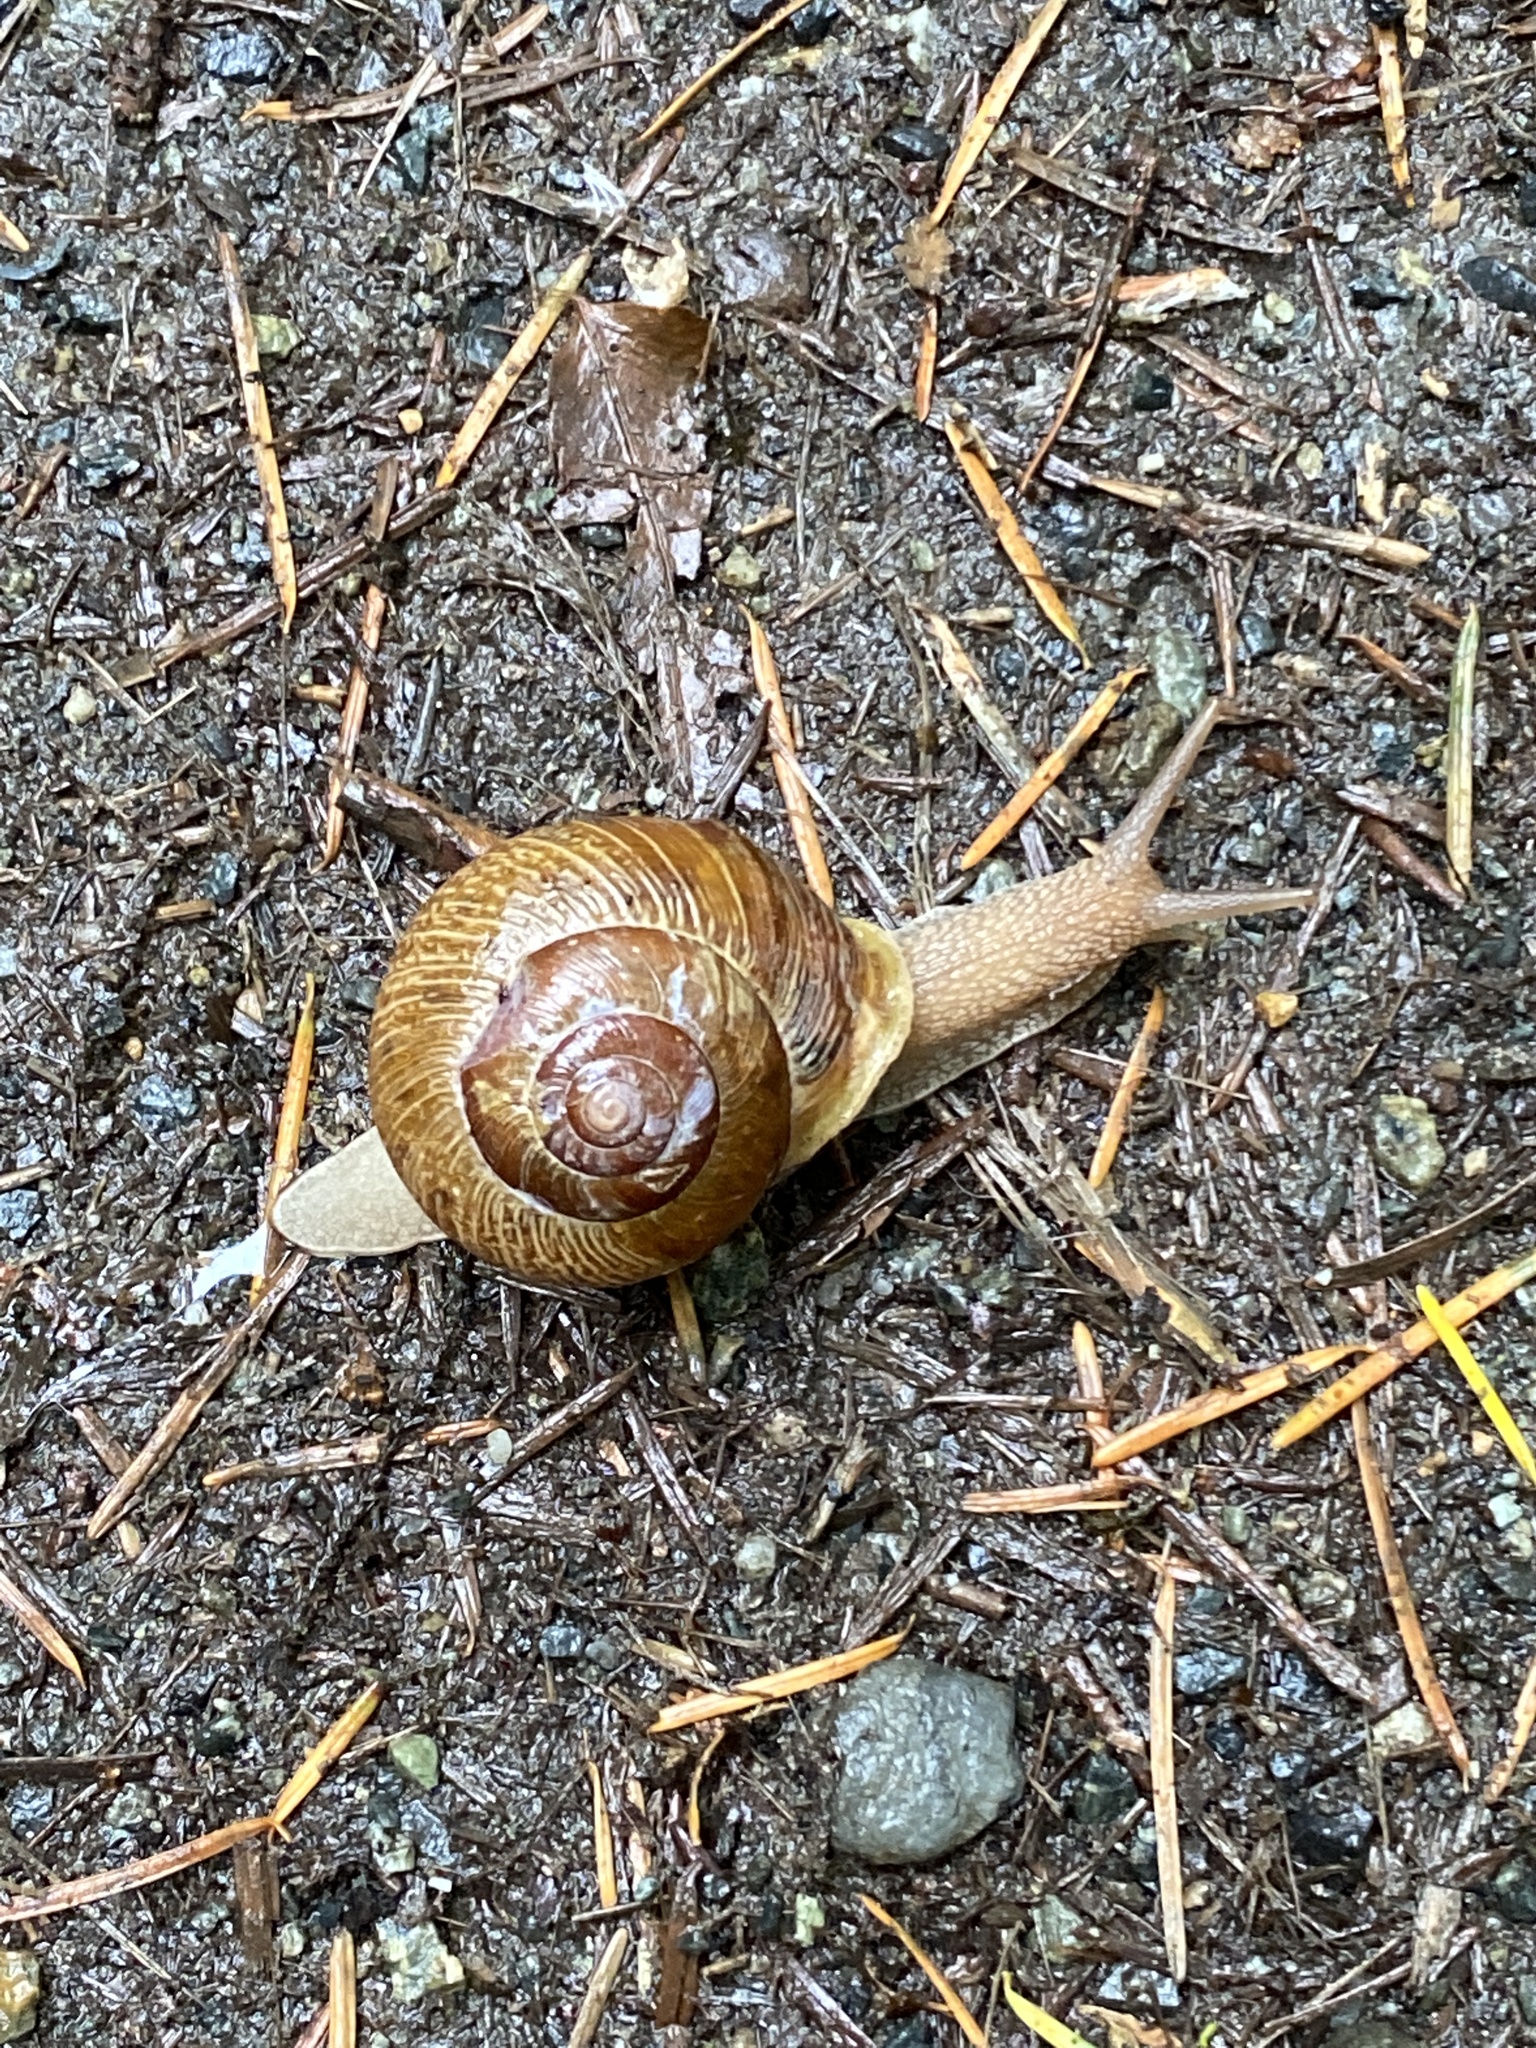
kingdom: Animalia
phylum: Mollusca
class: Gastropoda
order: Stylommatophora
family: Polygyridae
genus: Allogona
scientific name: Allogona townsendiana
